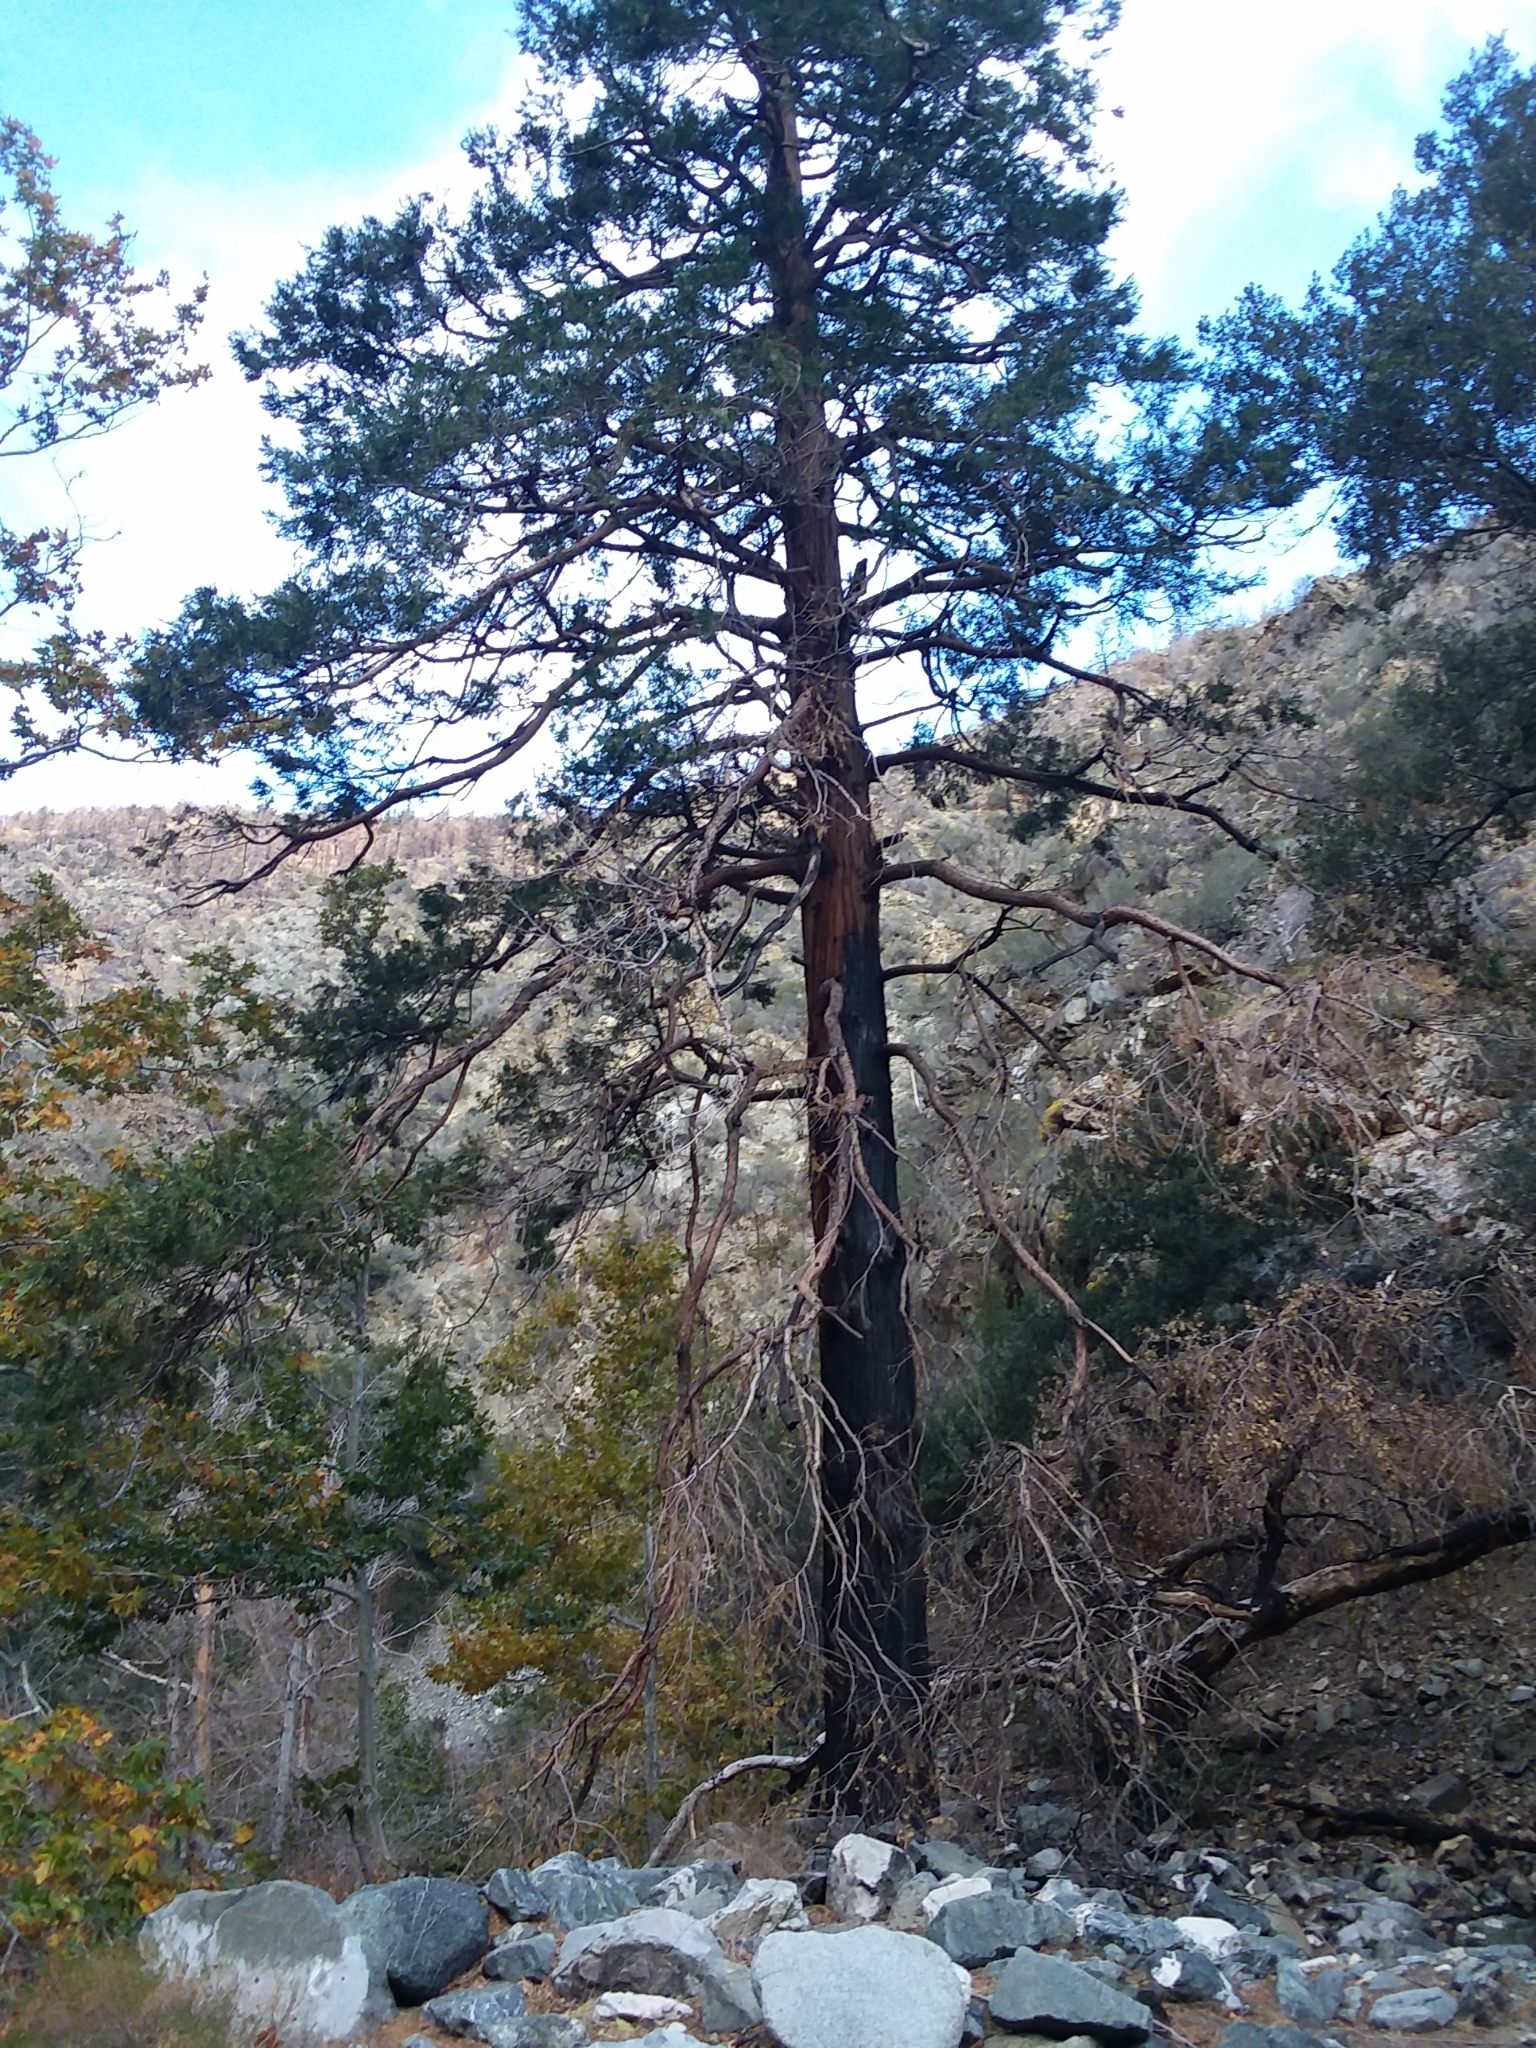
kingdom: Plantae
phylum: Tracheophyta
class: Pinopsida
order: Pinales
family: Cupressaceae
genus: Calocedrus
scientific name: Calocedrus decurrens
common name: Californian incense-cedar
